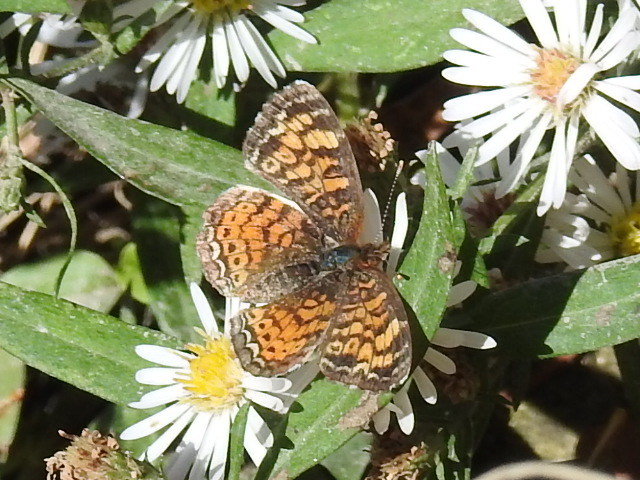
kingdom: Animalia
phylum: Arthropoda
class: Insecta
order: Lepidoptera
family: Nymphalidae
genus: Phyciodes
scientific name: Phyciodes tharos
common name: Pearl crescent
